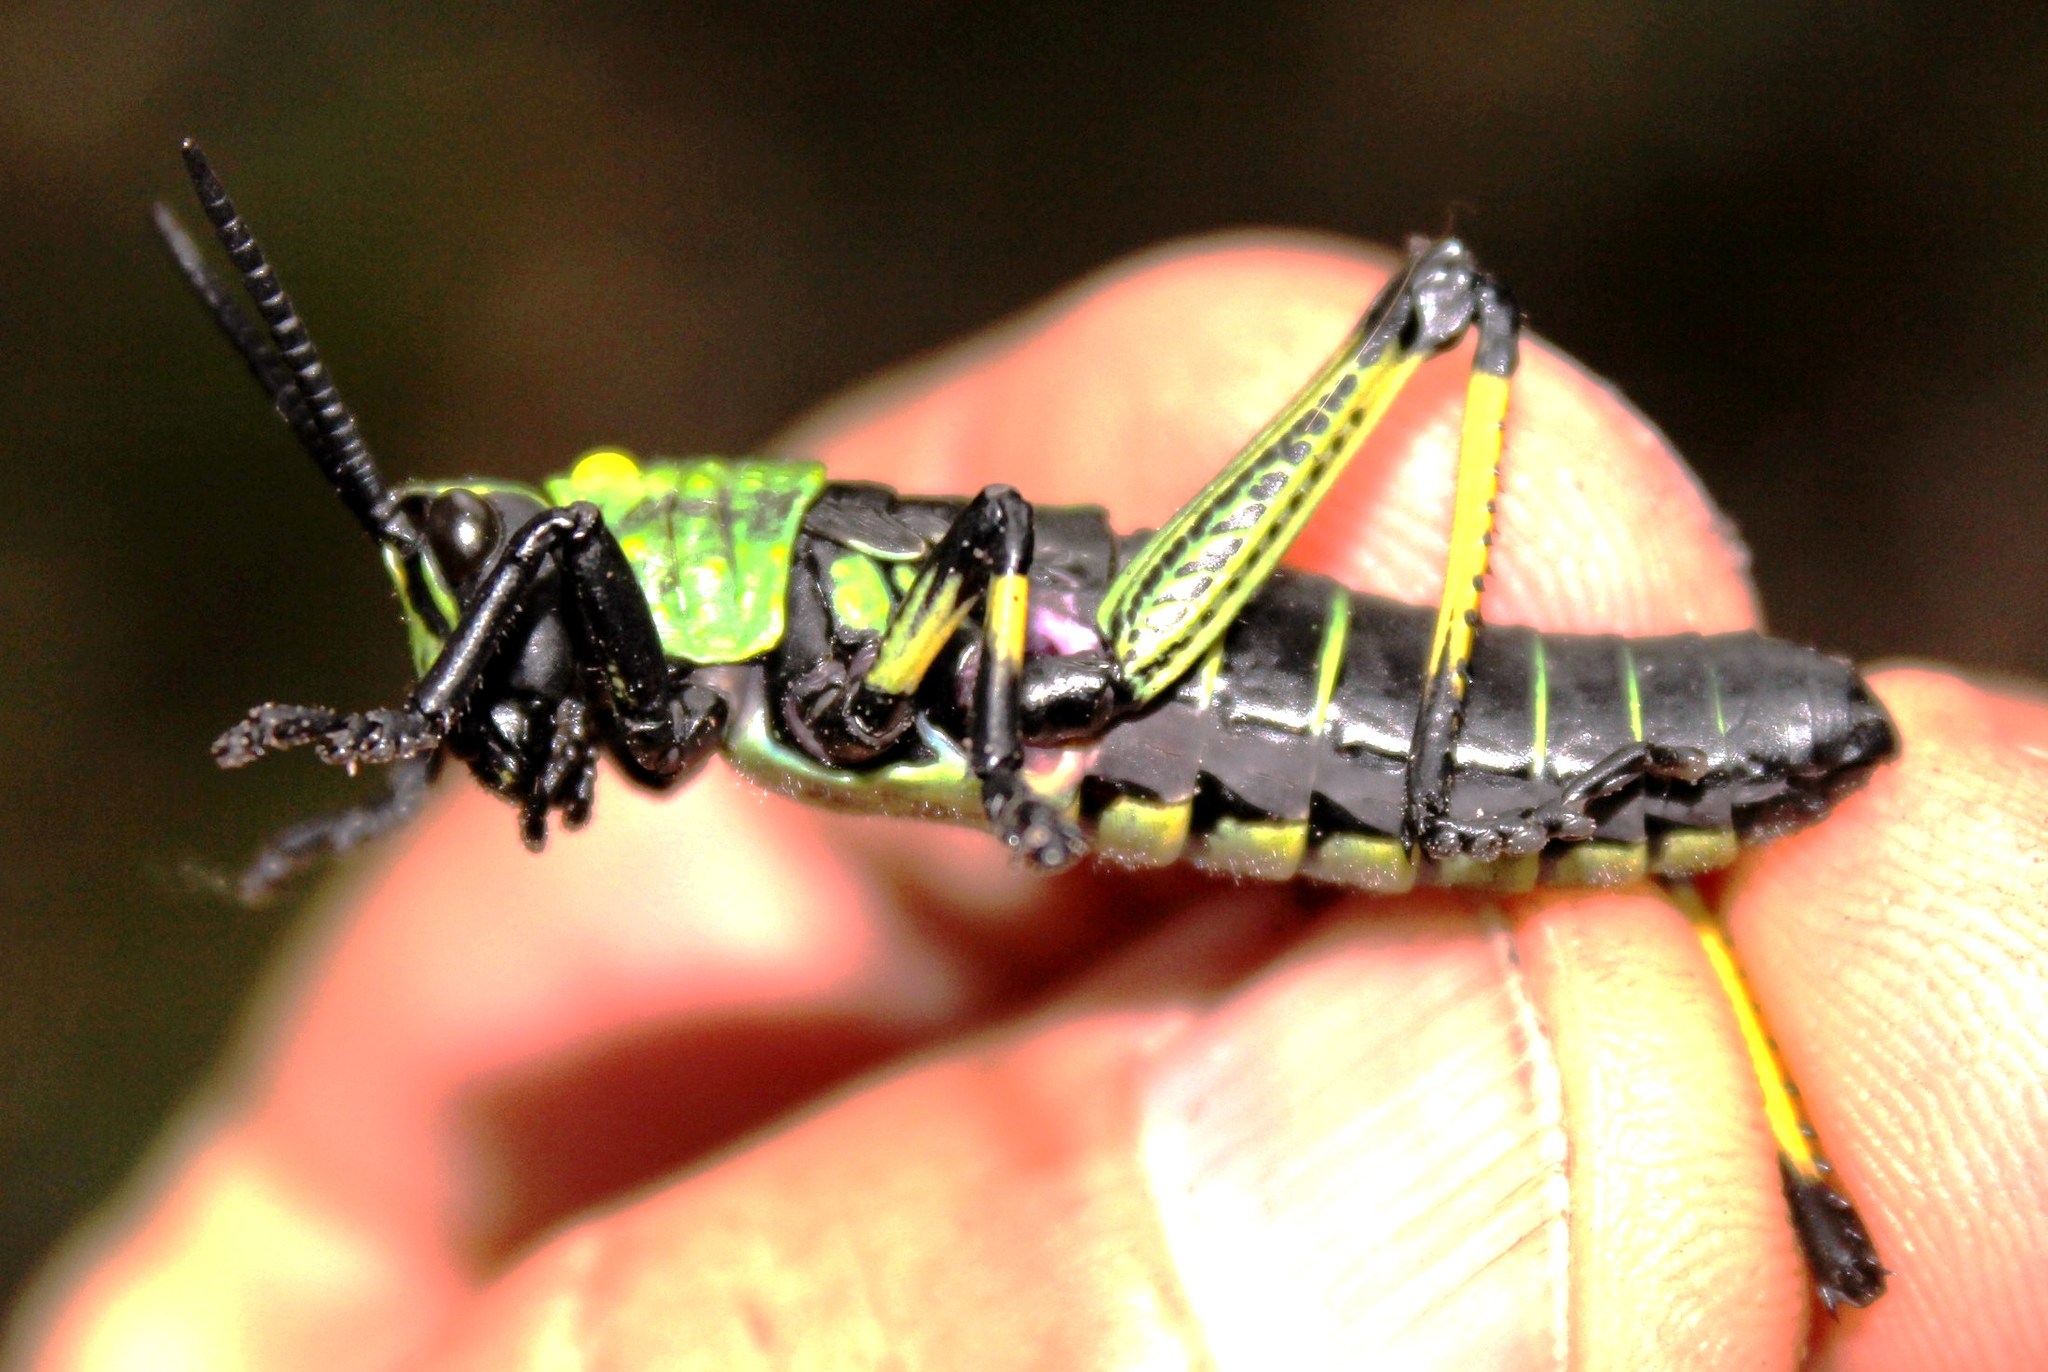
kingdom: Animalia
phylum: Arthropoda
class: Insecta
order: Orthoptera
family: Pyrgomorphidae
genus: Phymateus
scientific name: Phymateus leprosus
